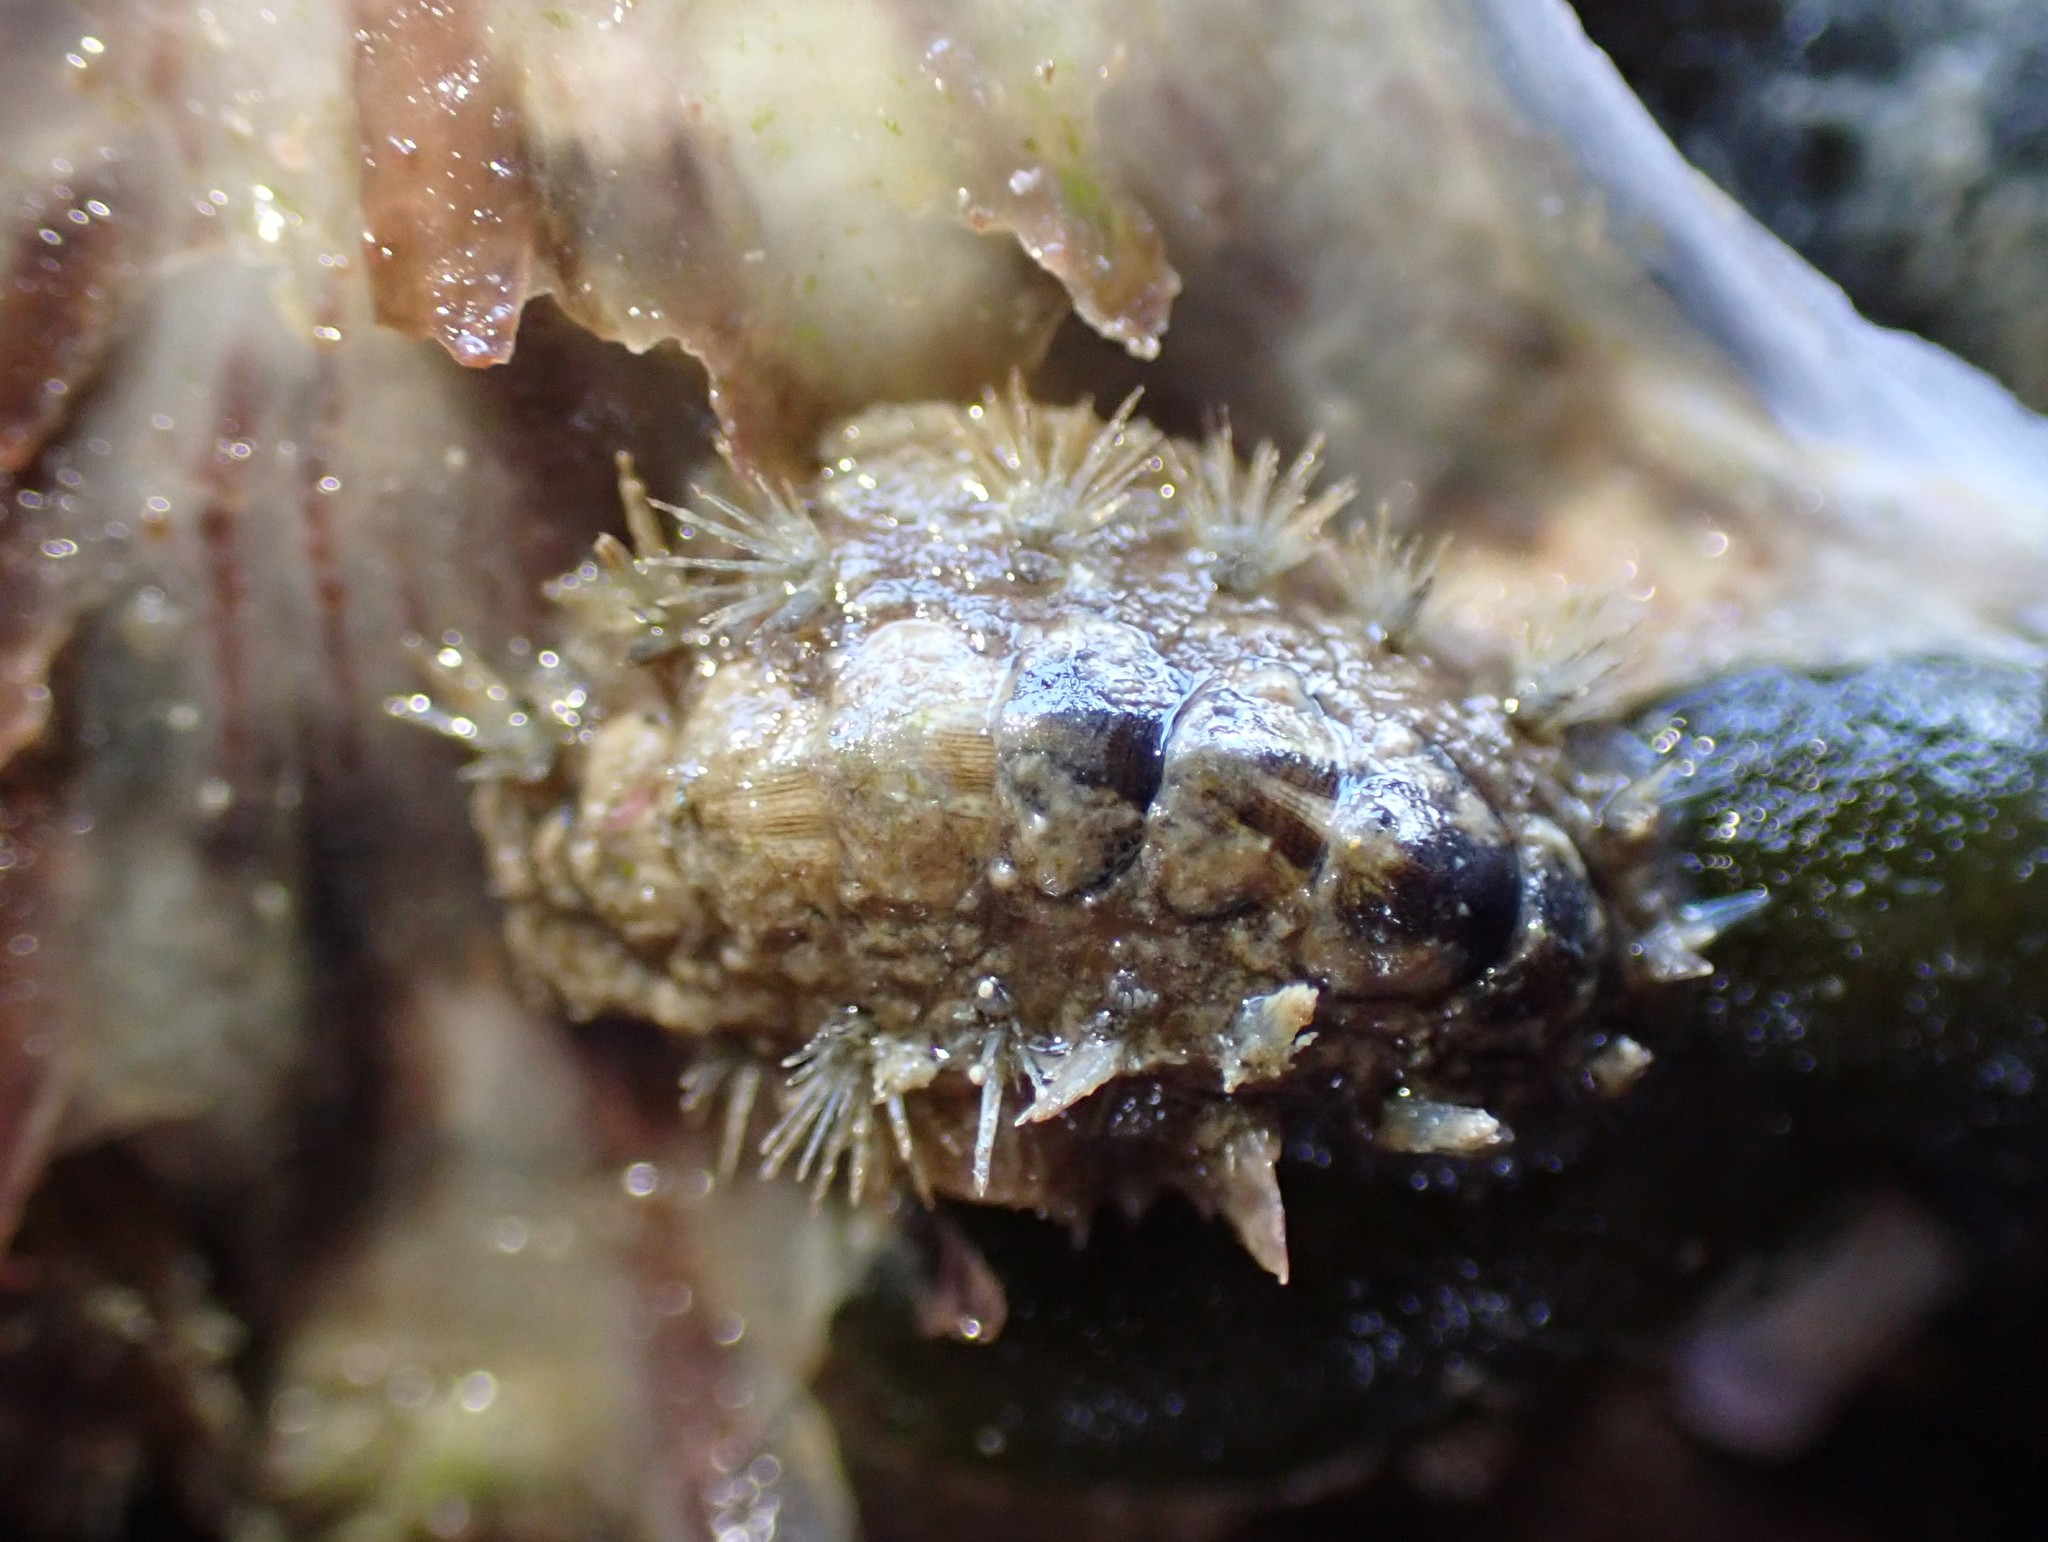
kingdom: Animalia
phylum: Mollusca
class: Polyplacophora
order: Chitonida
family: Acanthochitonidae
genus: Acanthochitona
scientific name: Acanthochitona zelandica
